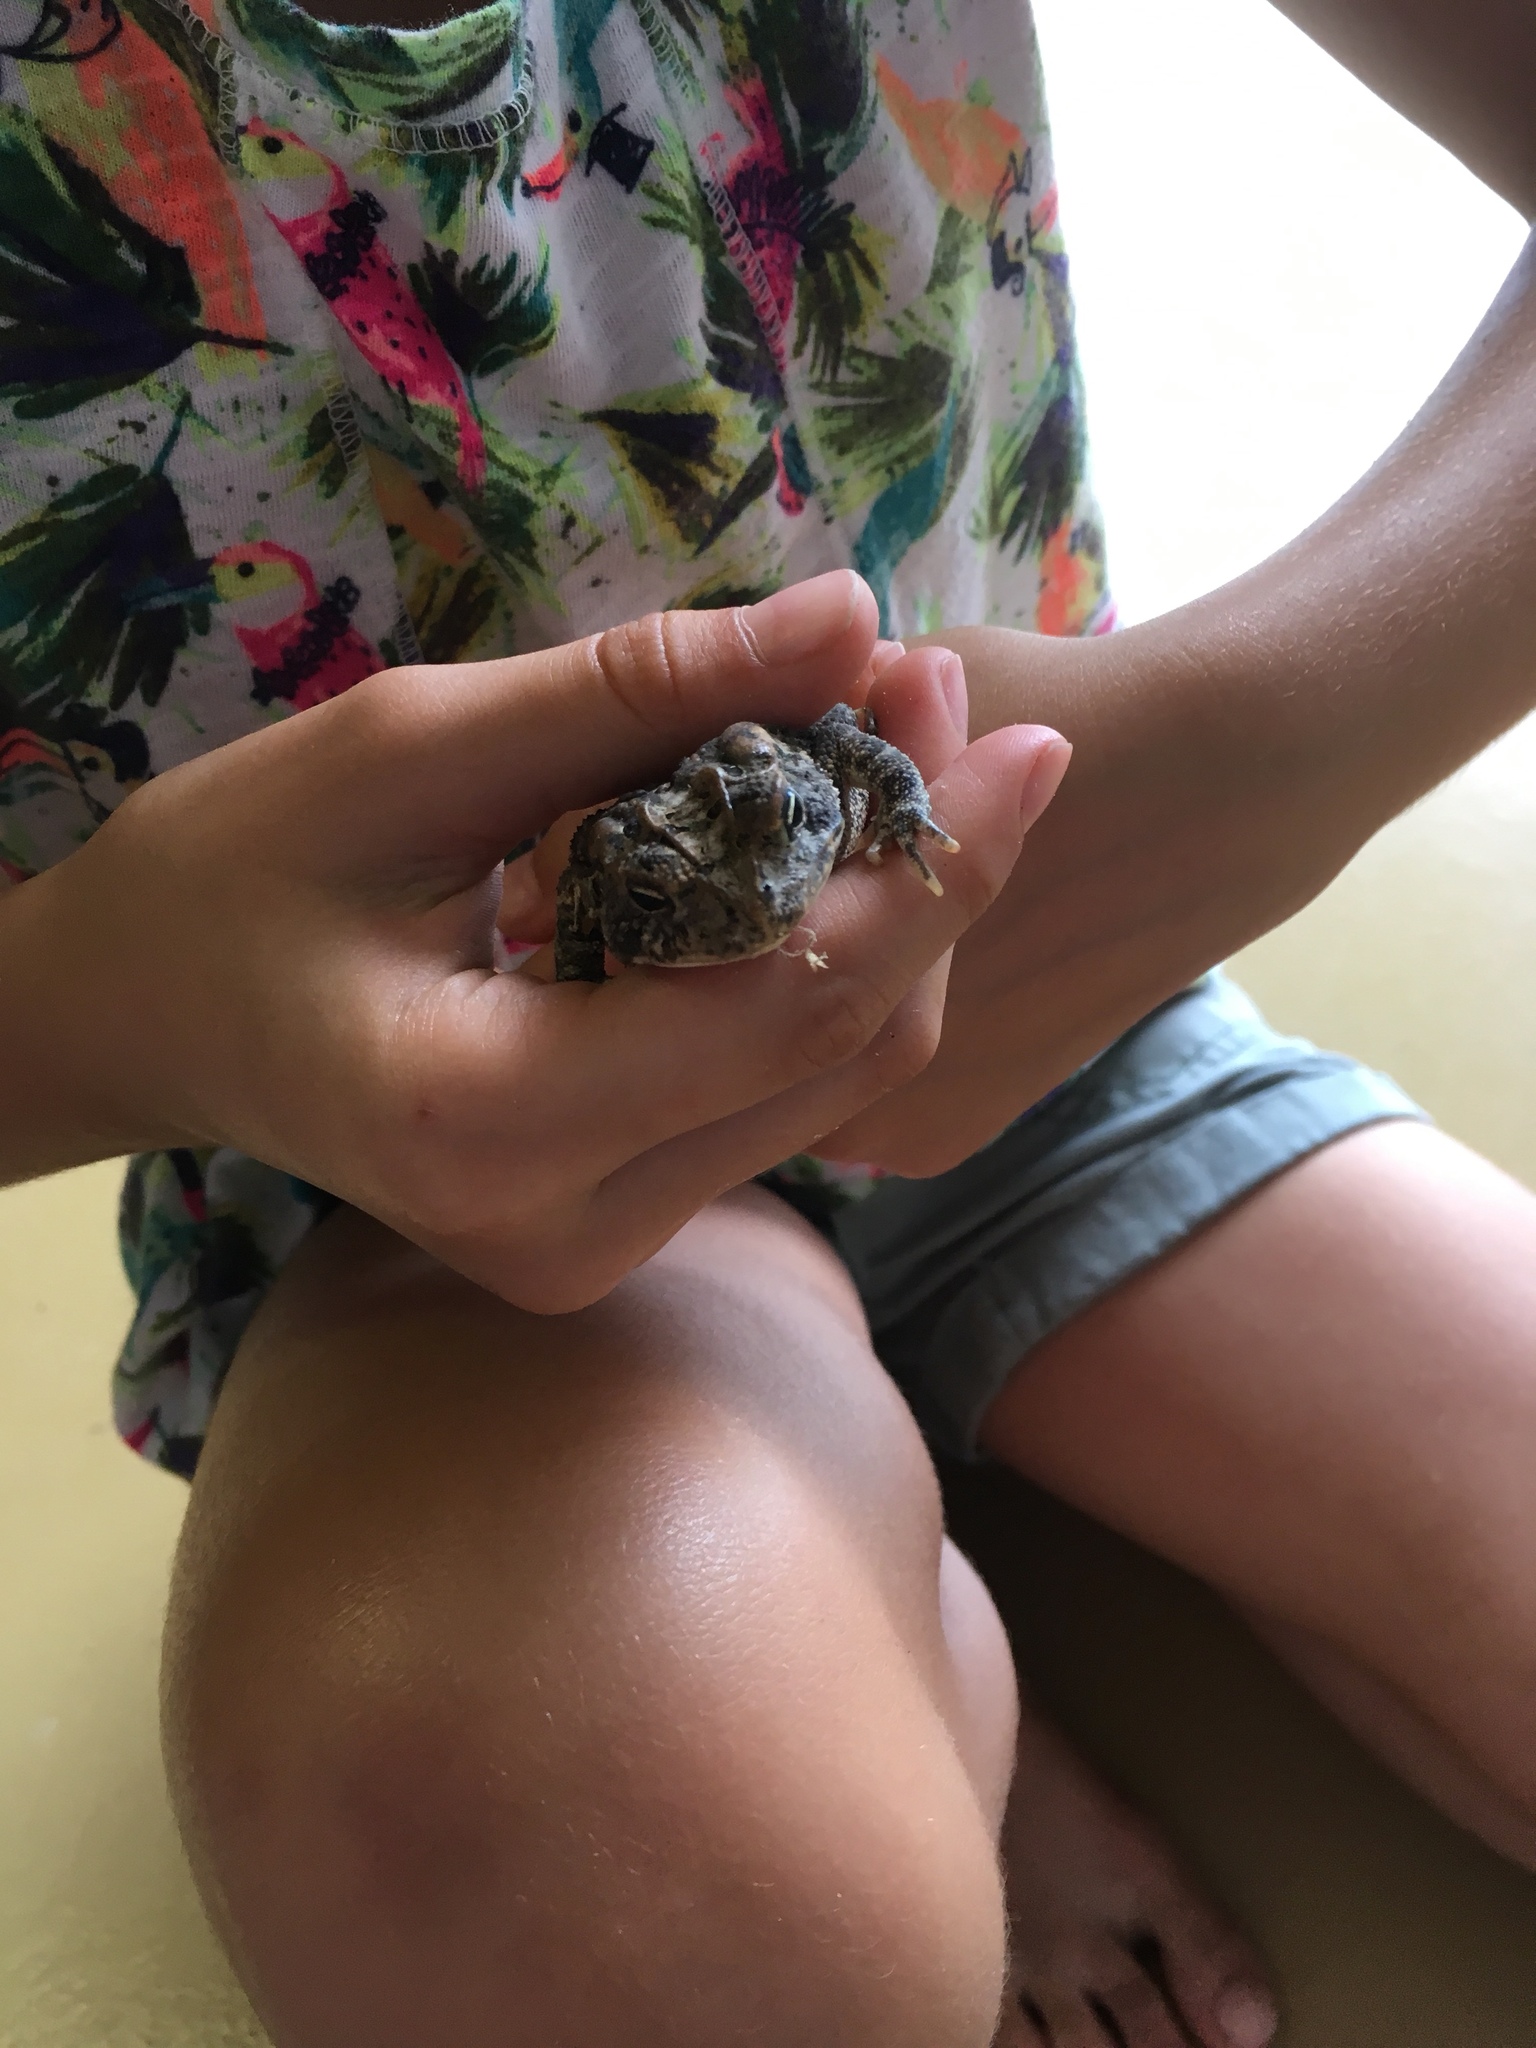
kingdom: Animalia
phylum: Chordata
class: Amphibia
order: Anura
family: Bufonidae
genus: Anaxyrus
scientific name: Anaxyrus terrestris
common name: Southern toad
